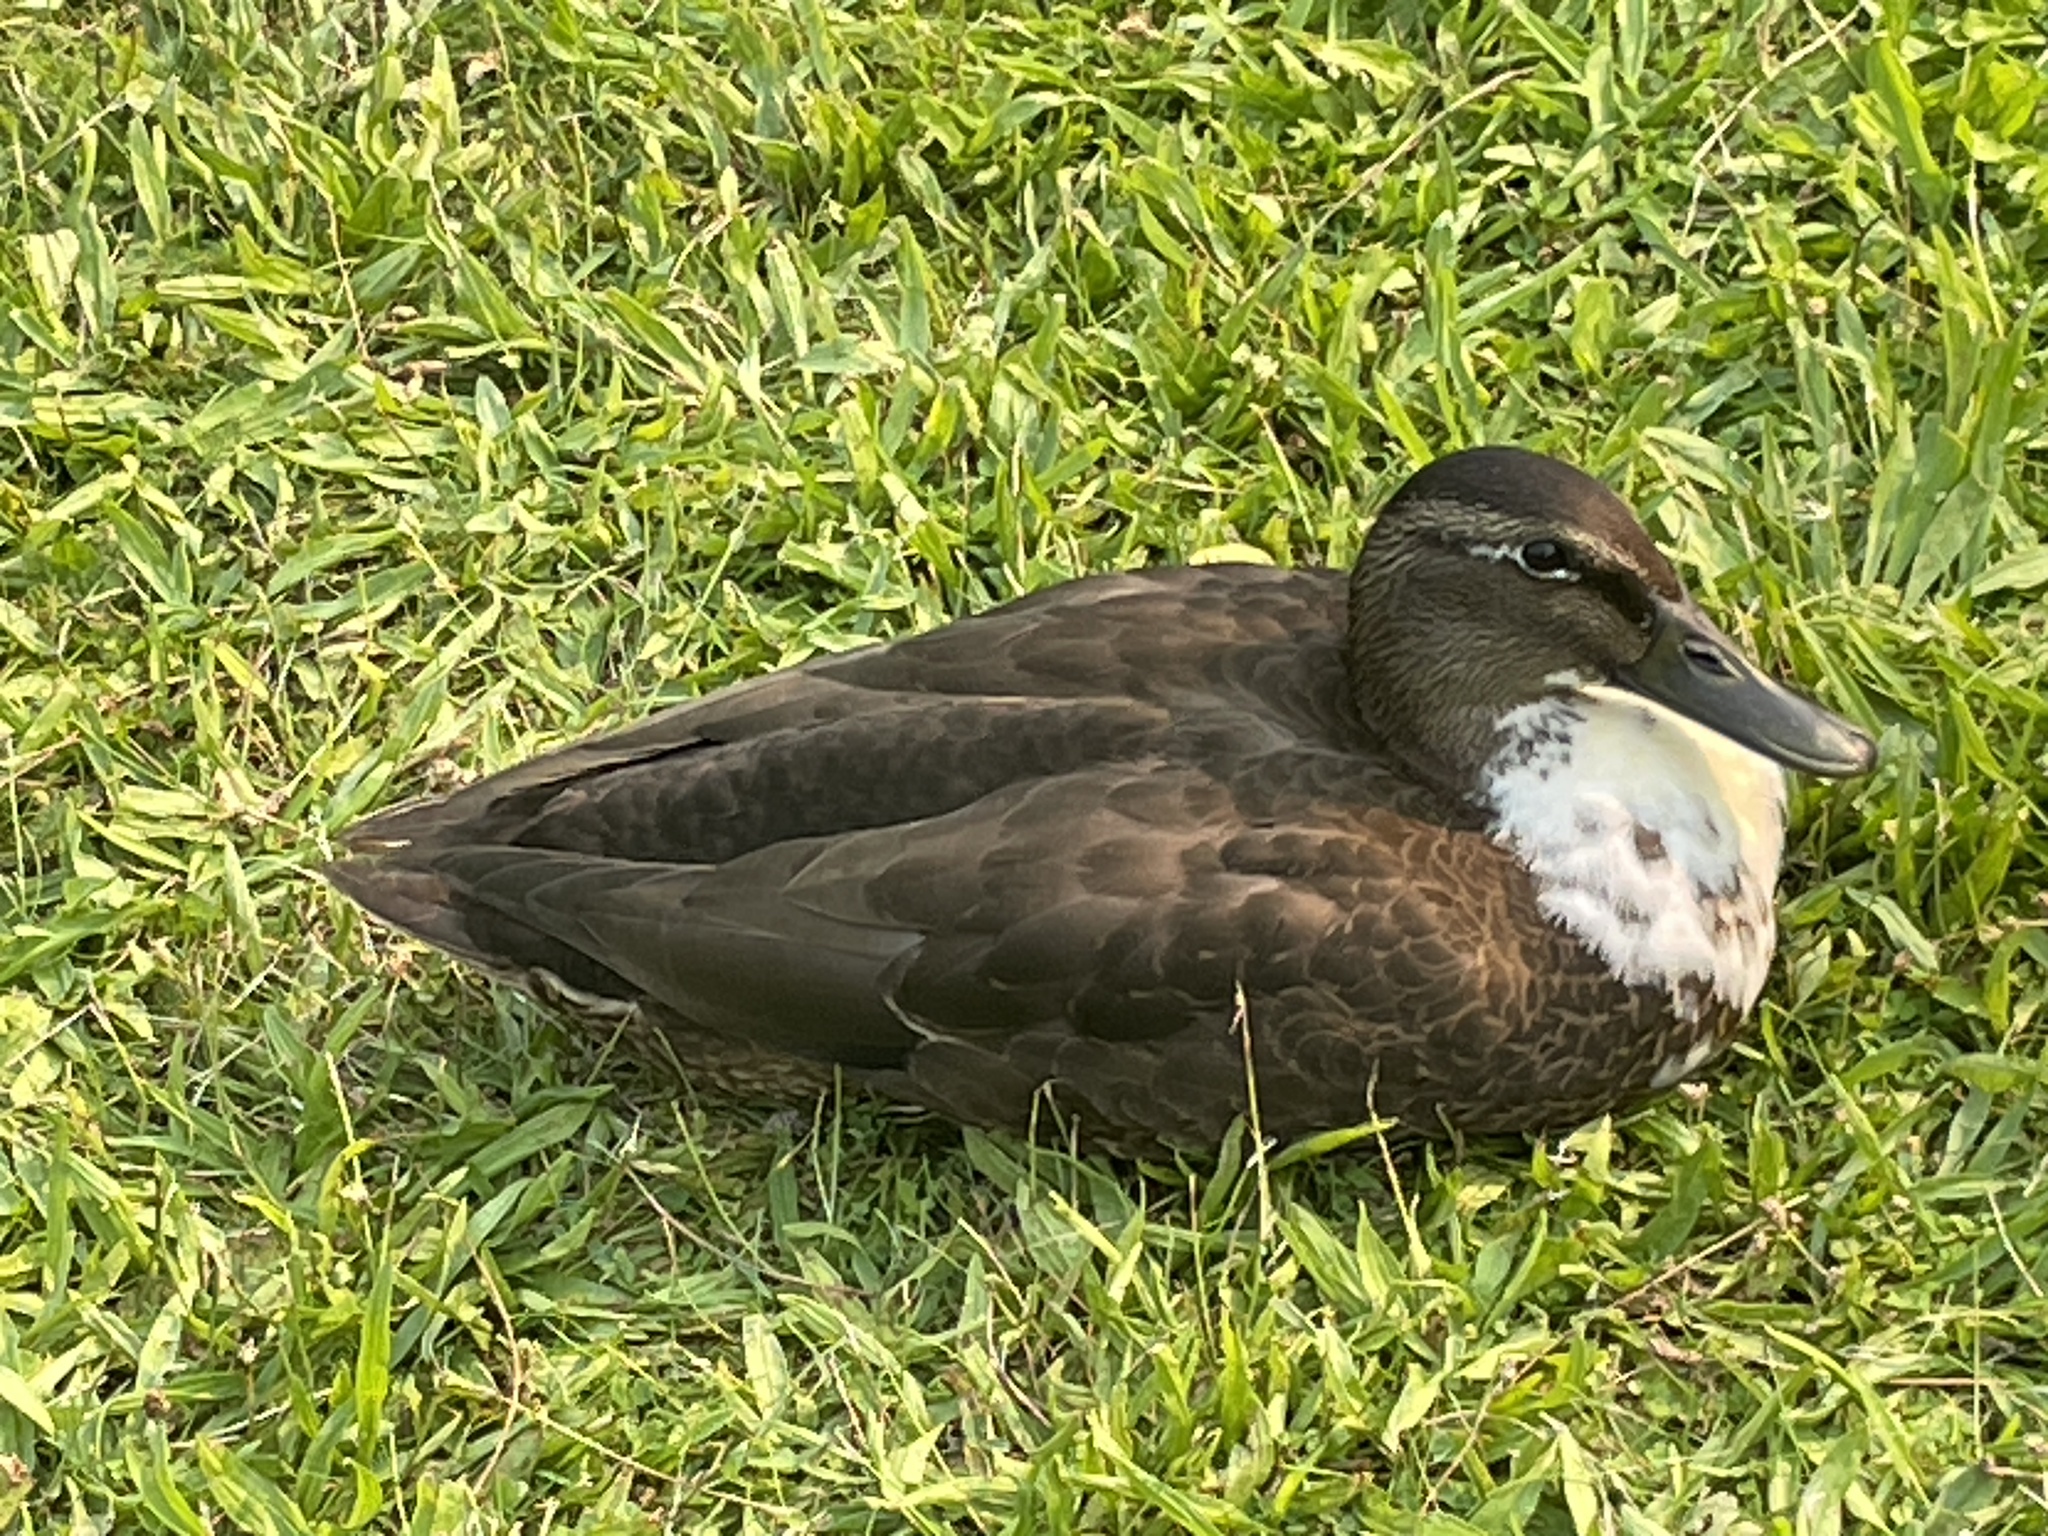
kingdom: Animalia
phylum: Chordata
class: Aves
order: Anseriformes
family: Anatidae
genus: Anas
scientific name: Anas platyrhynchos
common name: Mallard
